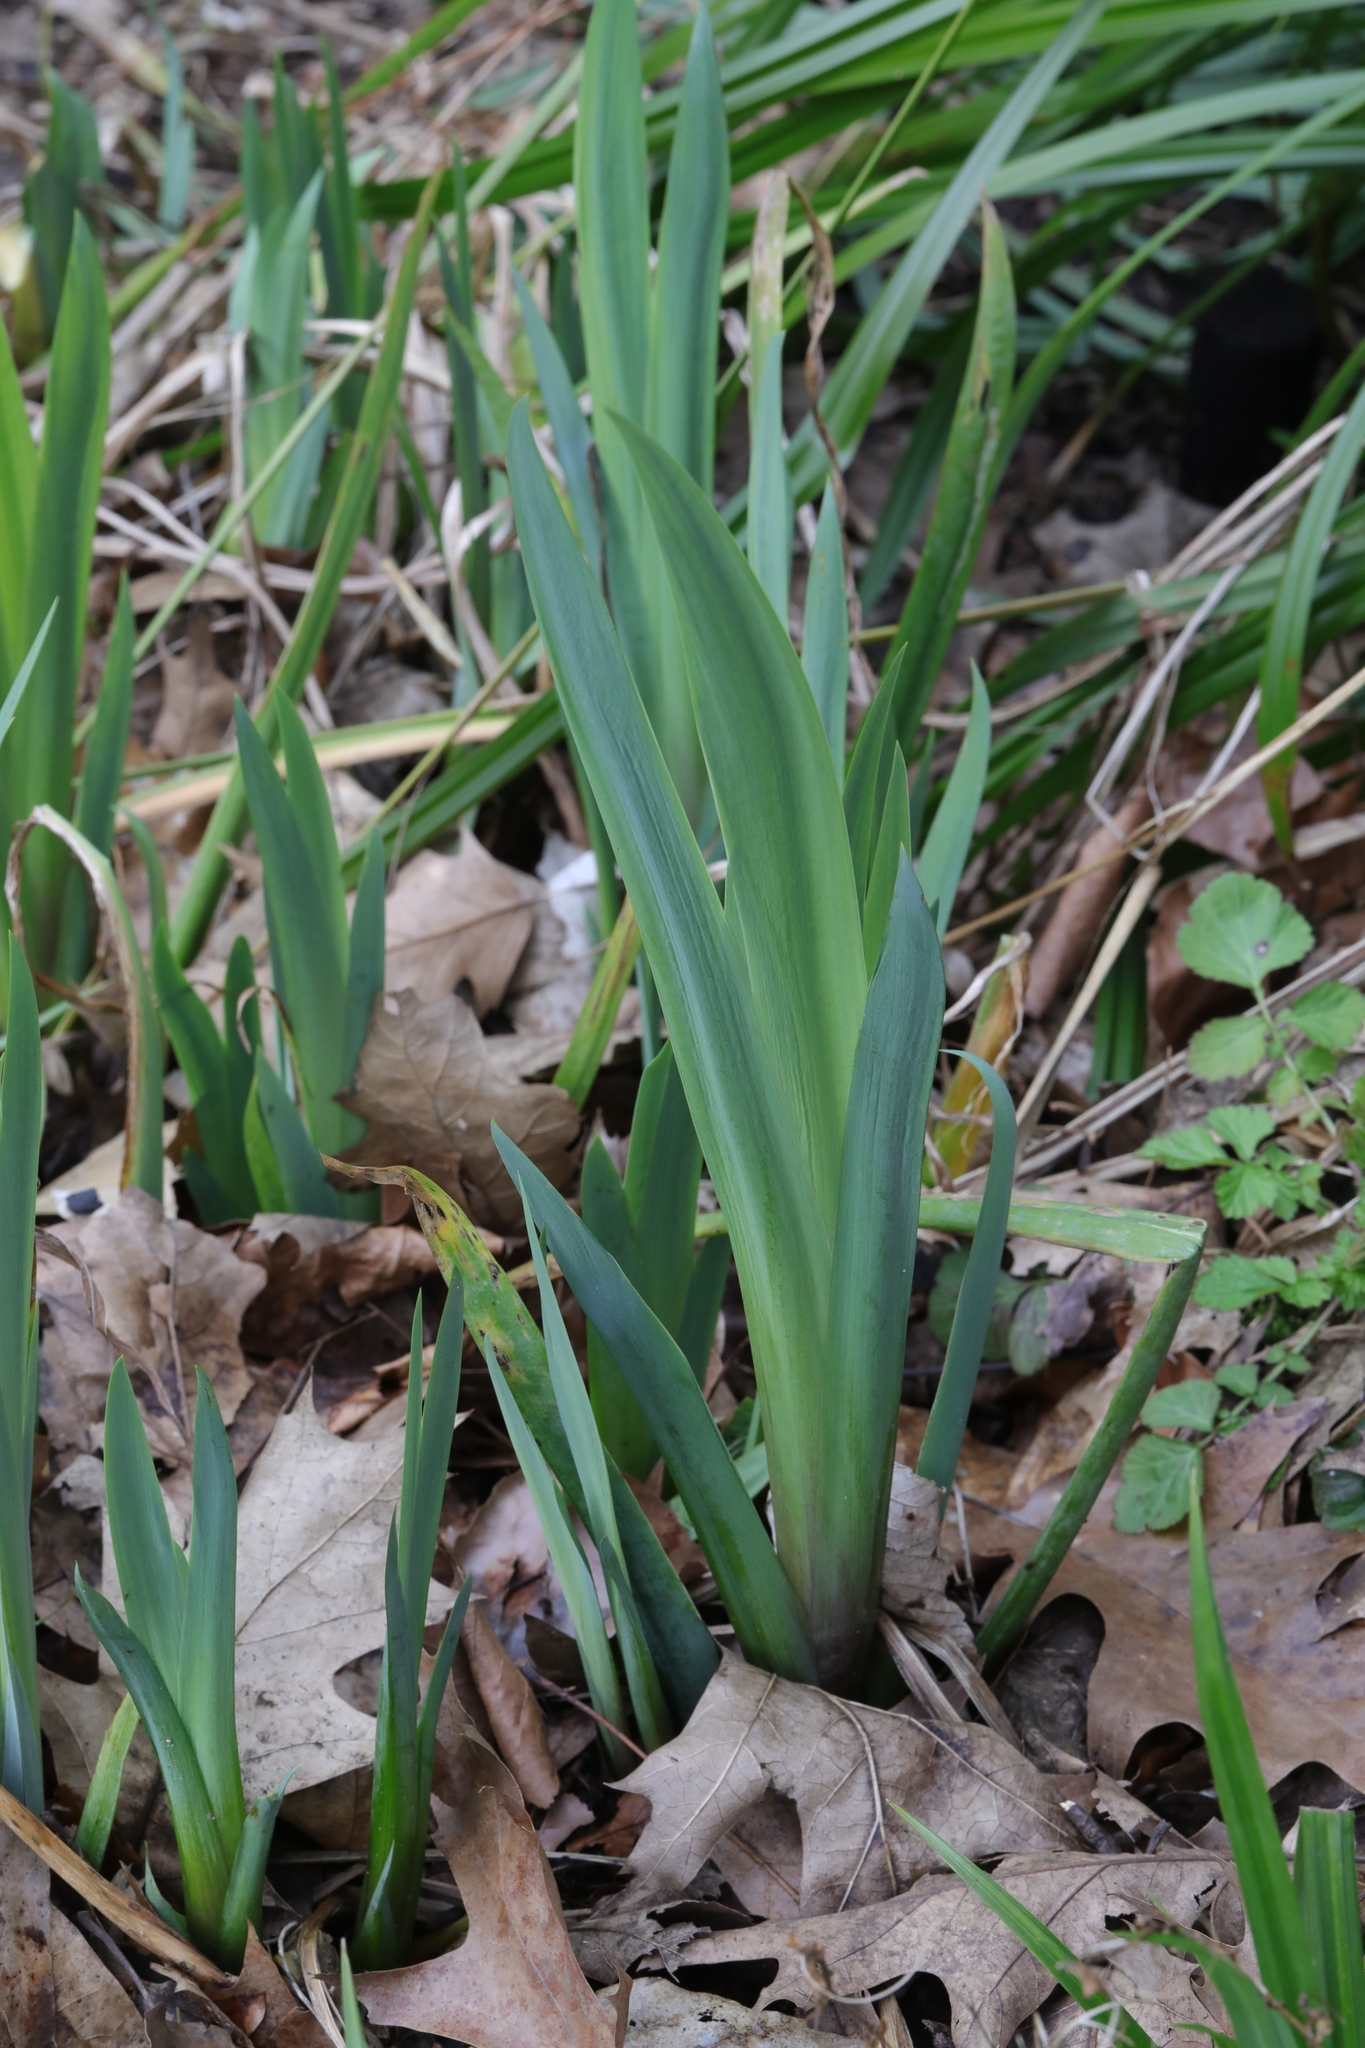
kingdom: Plantae
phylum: Tracheophyta
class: Liliopsida
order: Asparagales
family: Iridaceae
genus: Iris
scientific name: Iris pseudacorus
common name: Yellow flag
